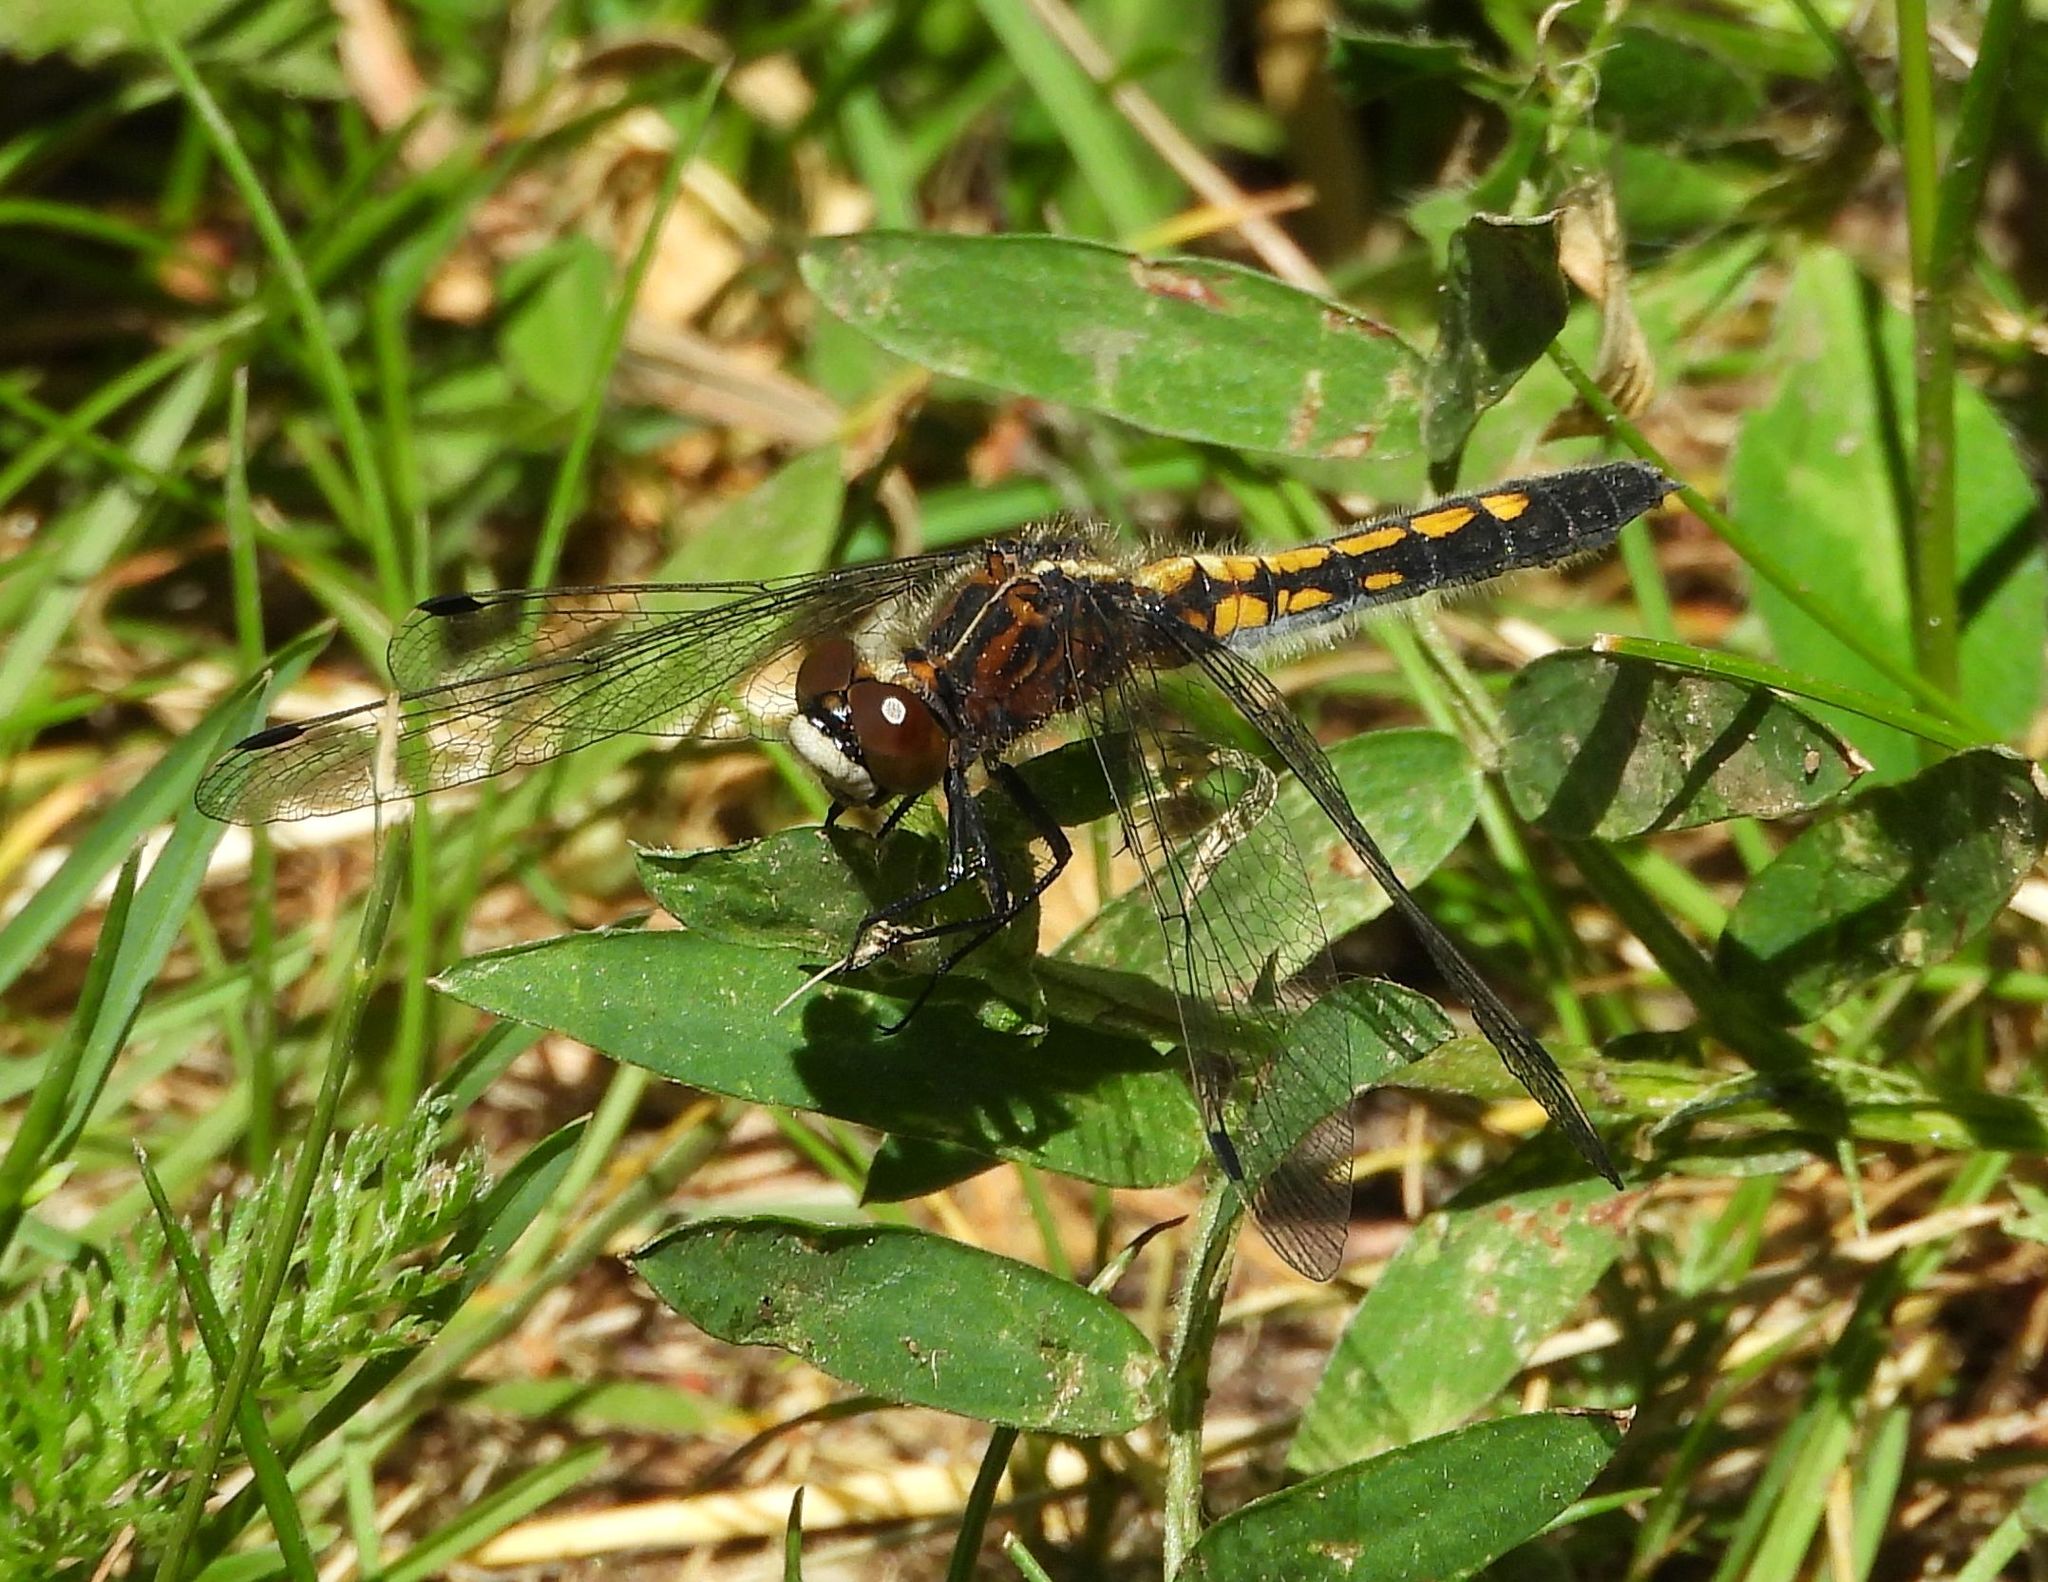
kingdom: Animalia
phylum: Arthropoda
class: Insecta
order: Odonata
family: Libellulidae
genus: Leucorrhinia
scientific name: Leucorrhinia intacta
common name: Dot-tailed whiteface
